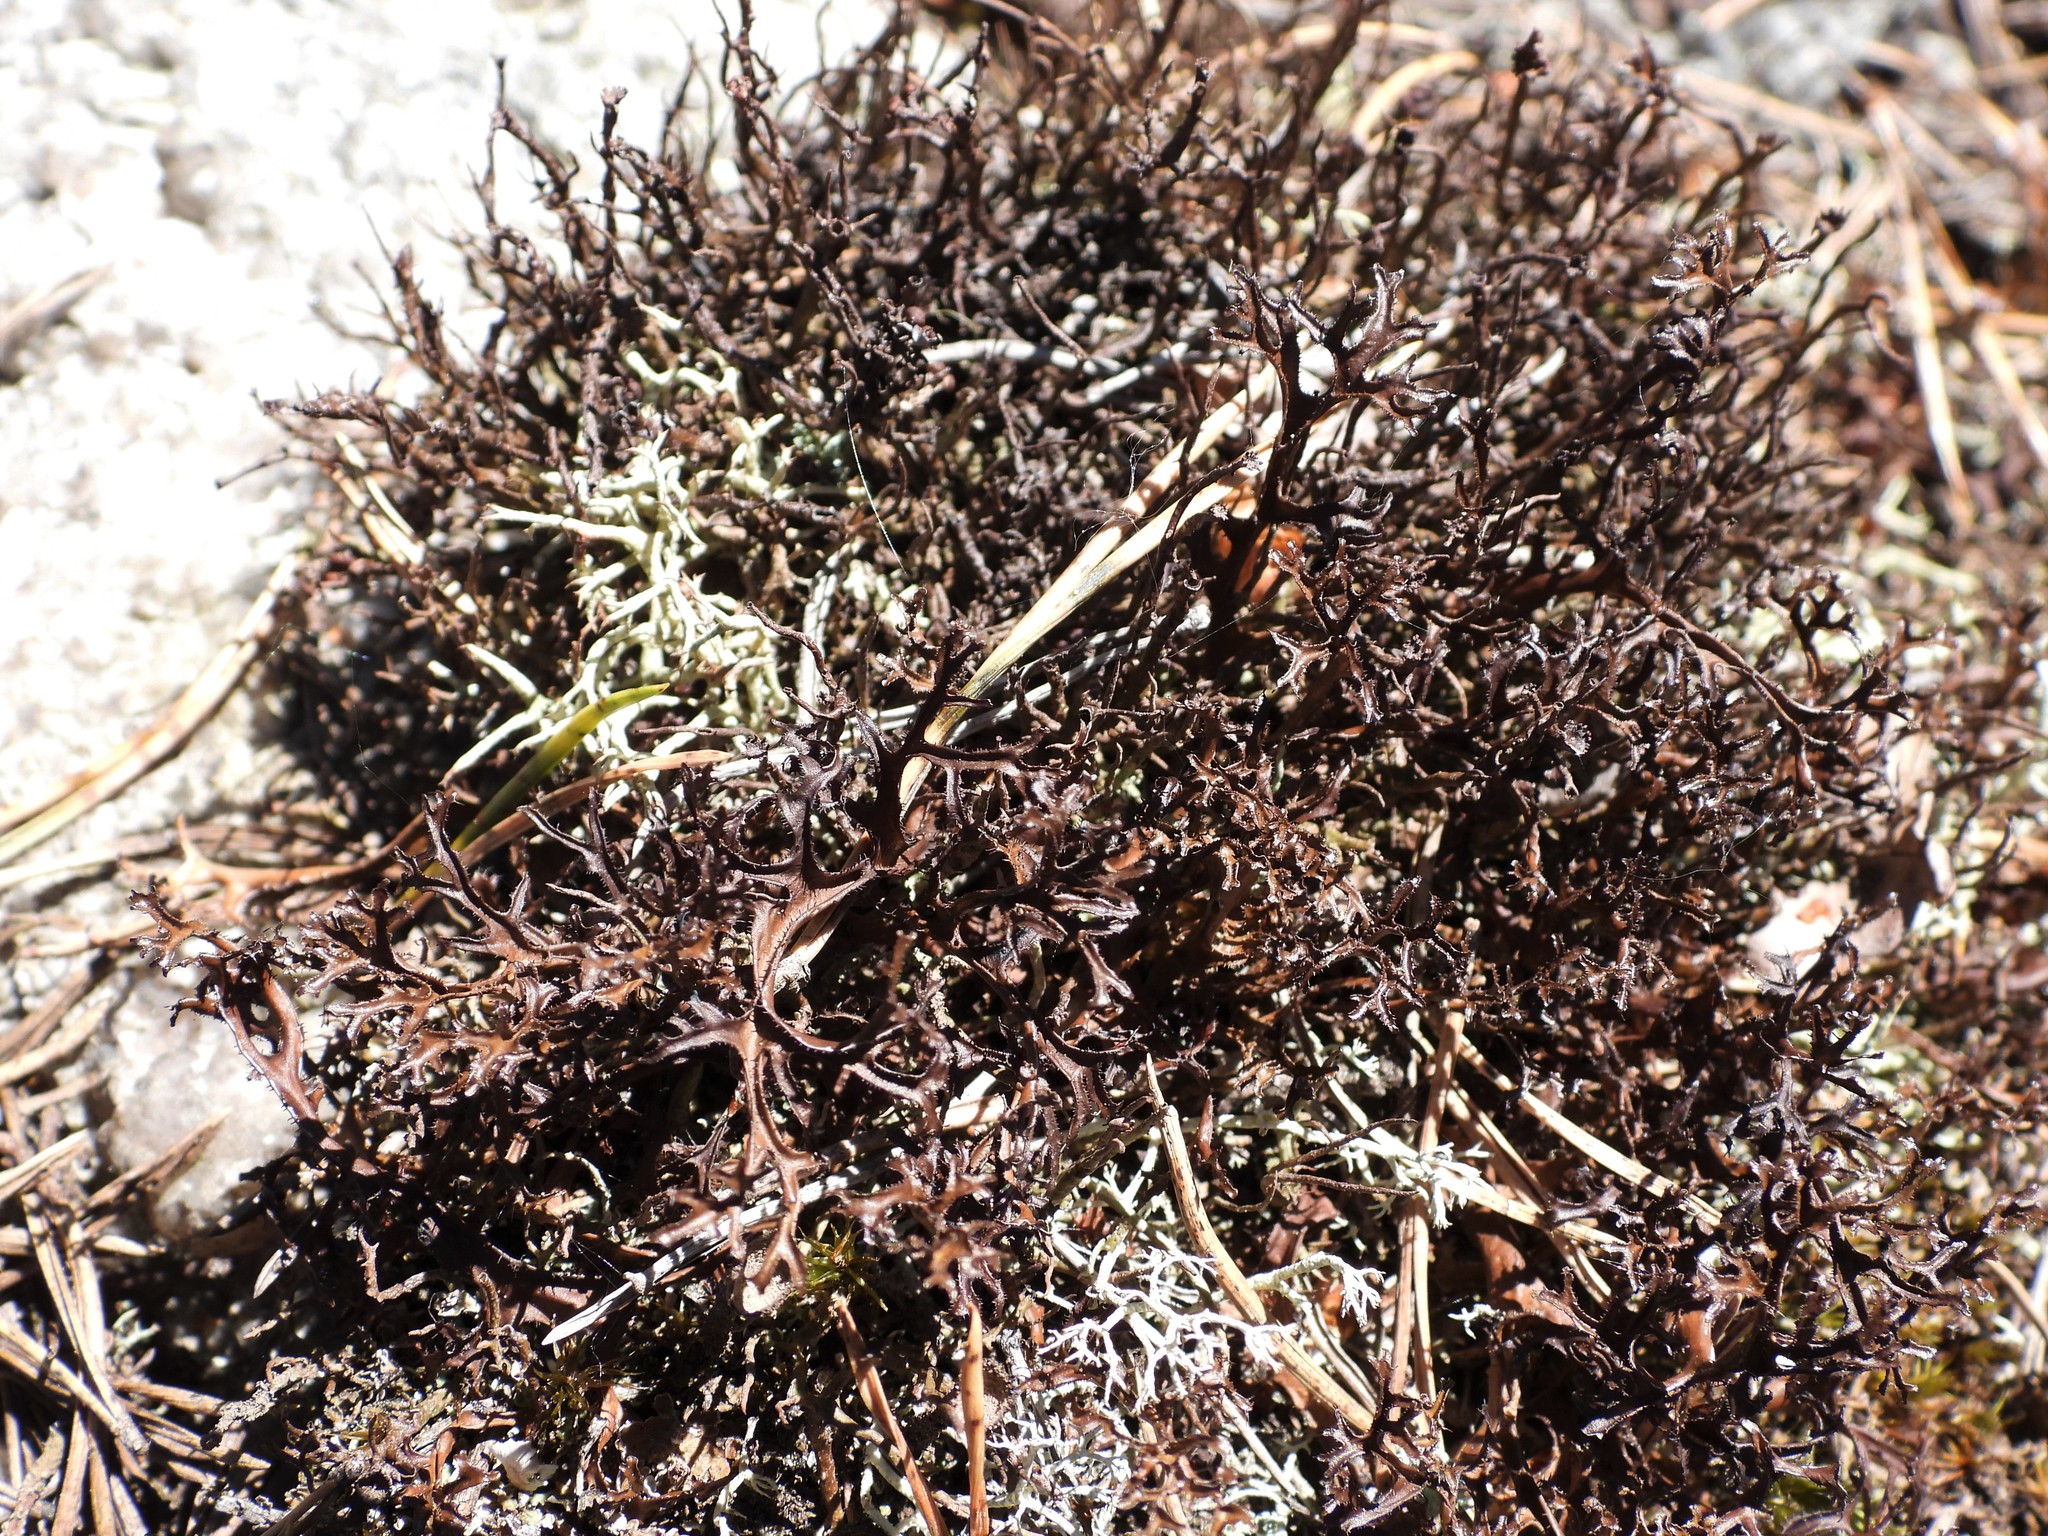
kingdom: Fungi
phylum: Ascomycota
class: Lecanoromycetes
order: Lecanorales
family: Parmeliaceae
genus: Cetraria
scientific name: Cetraria ericetorum
